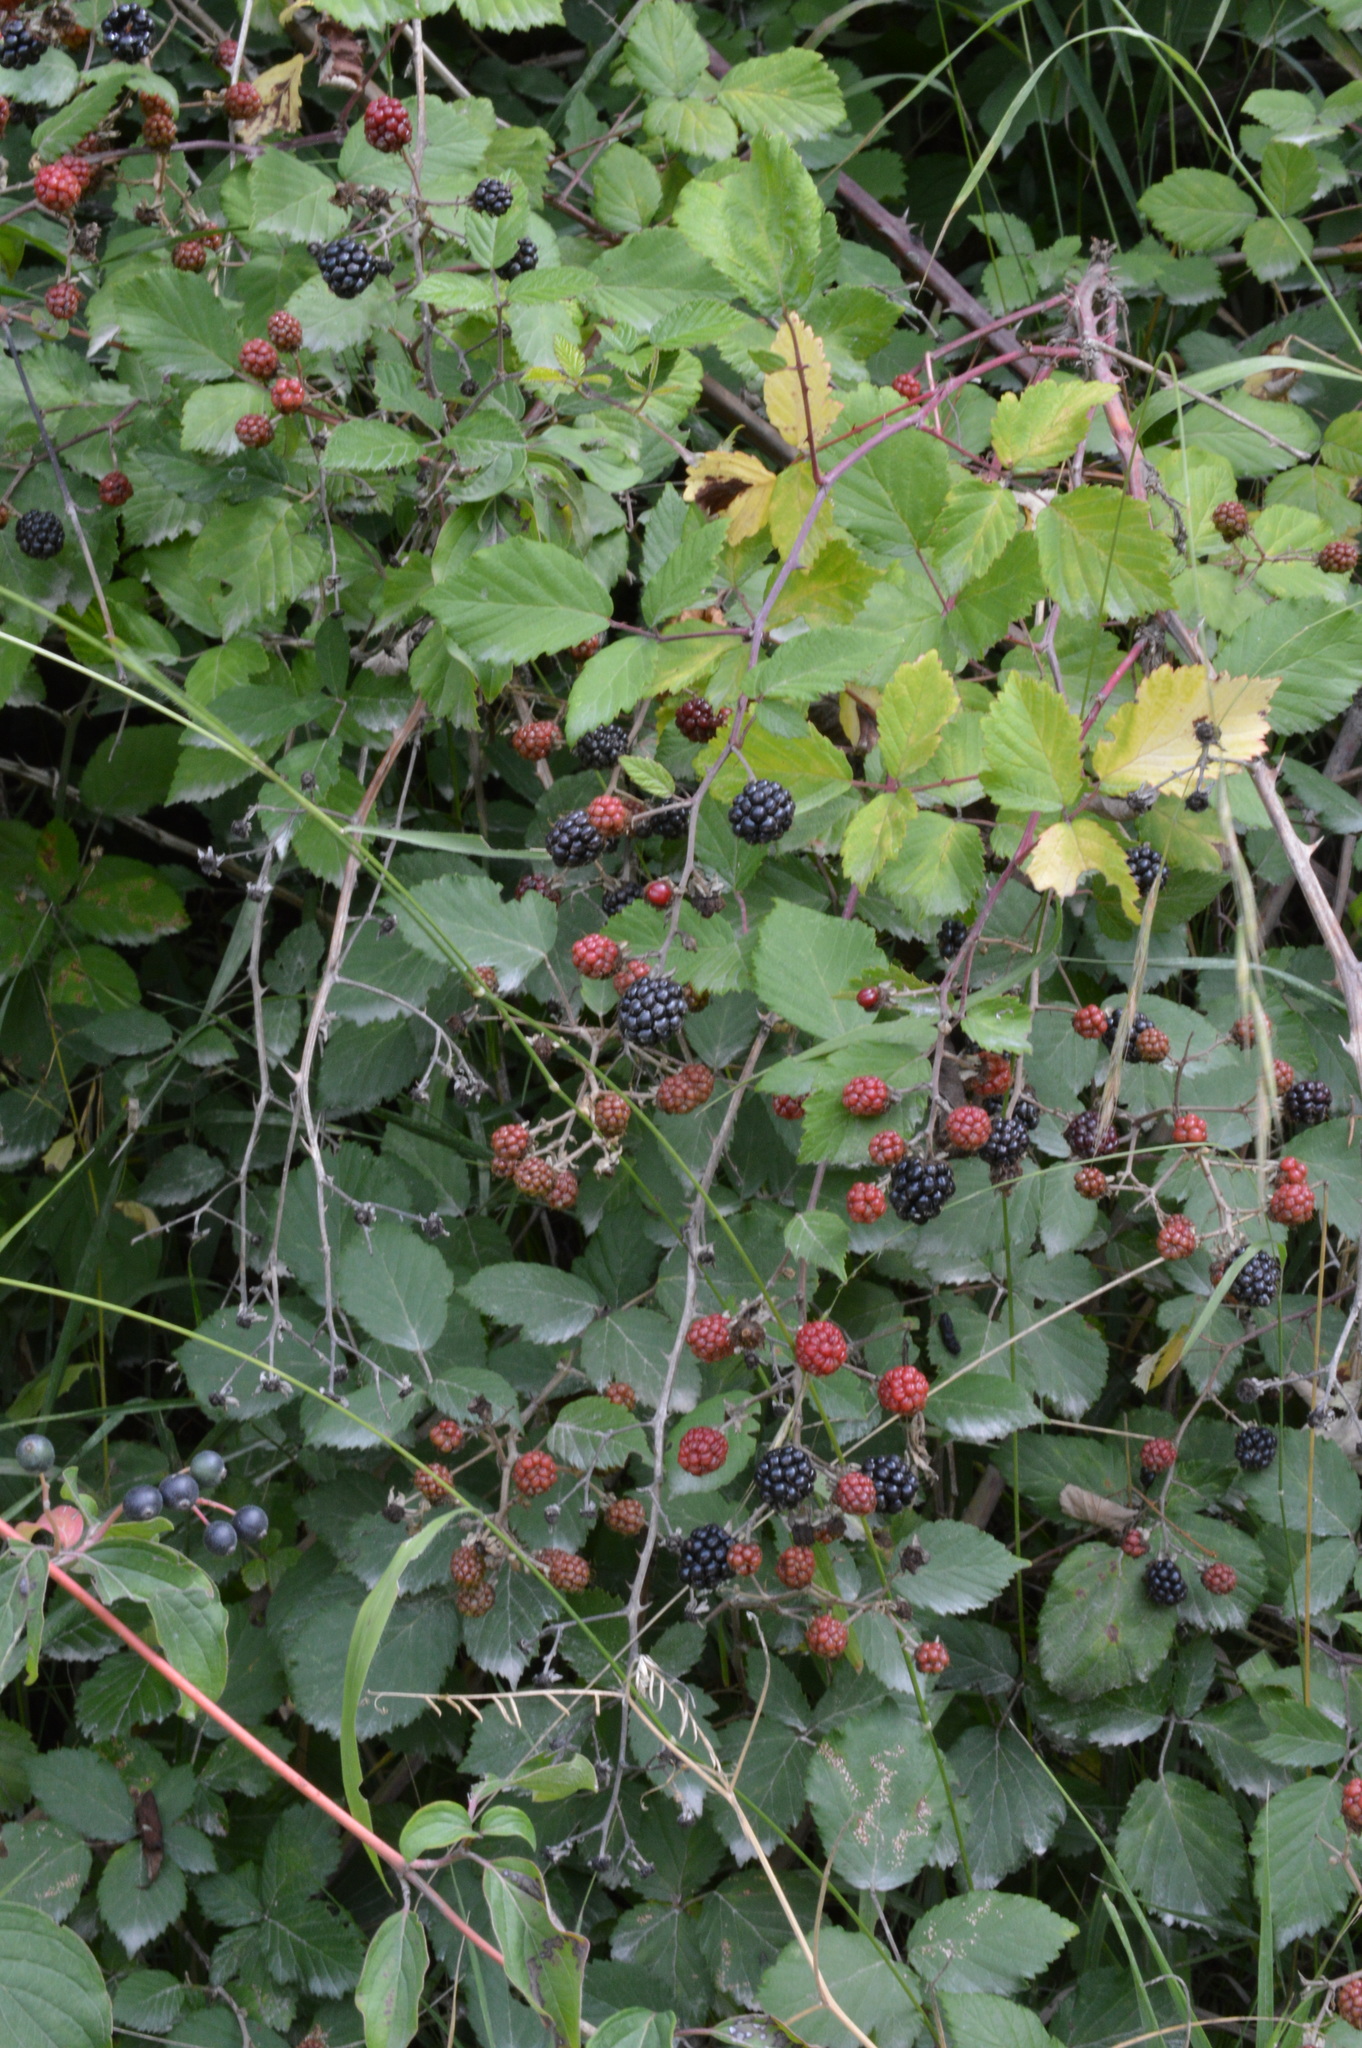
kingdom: Plantae
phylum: Tracheophyta
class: Magnoliopsida
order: Rosales
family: Rosaceae
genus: Rubus
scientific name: Rubus ulmifolius
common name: Elmleaf blackberry
